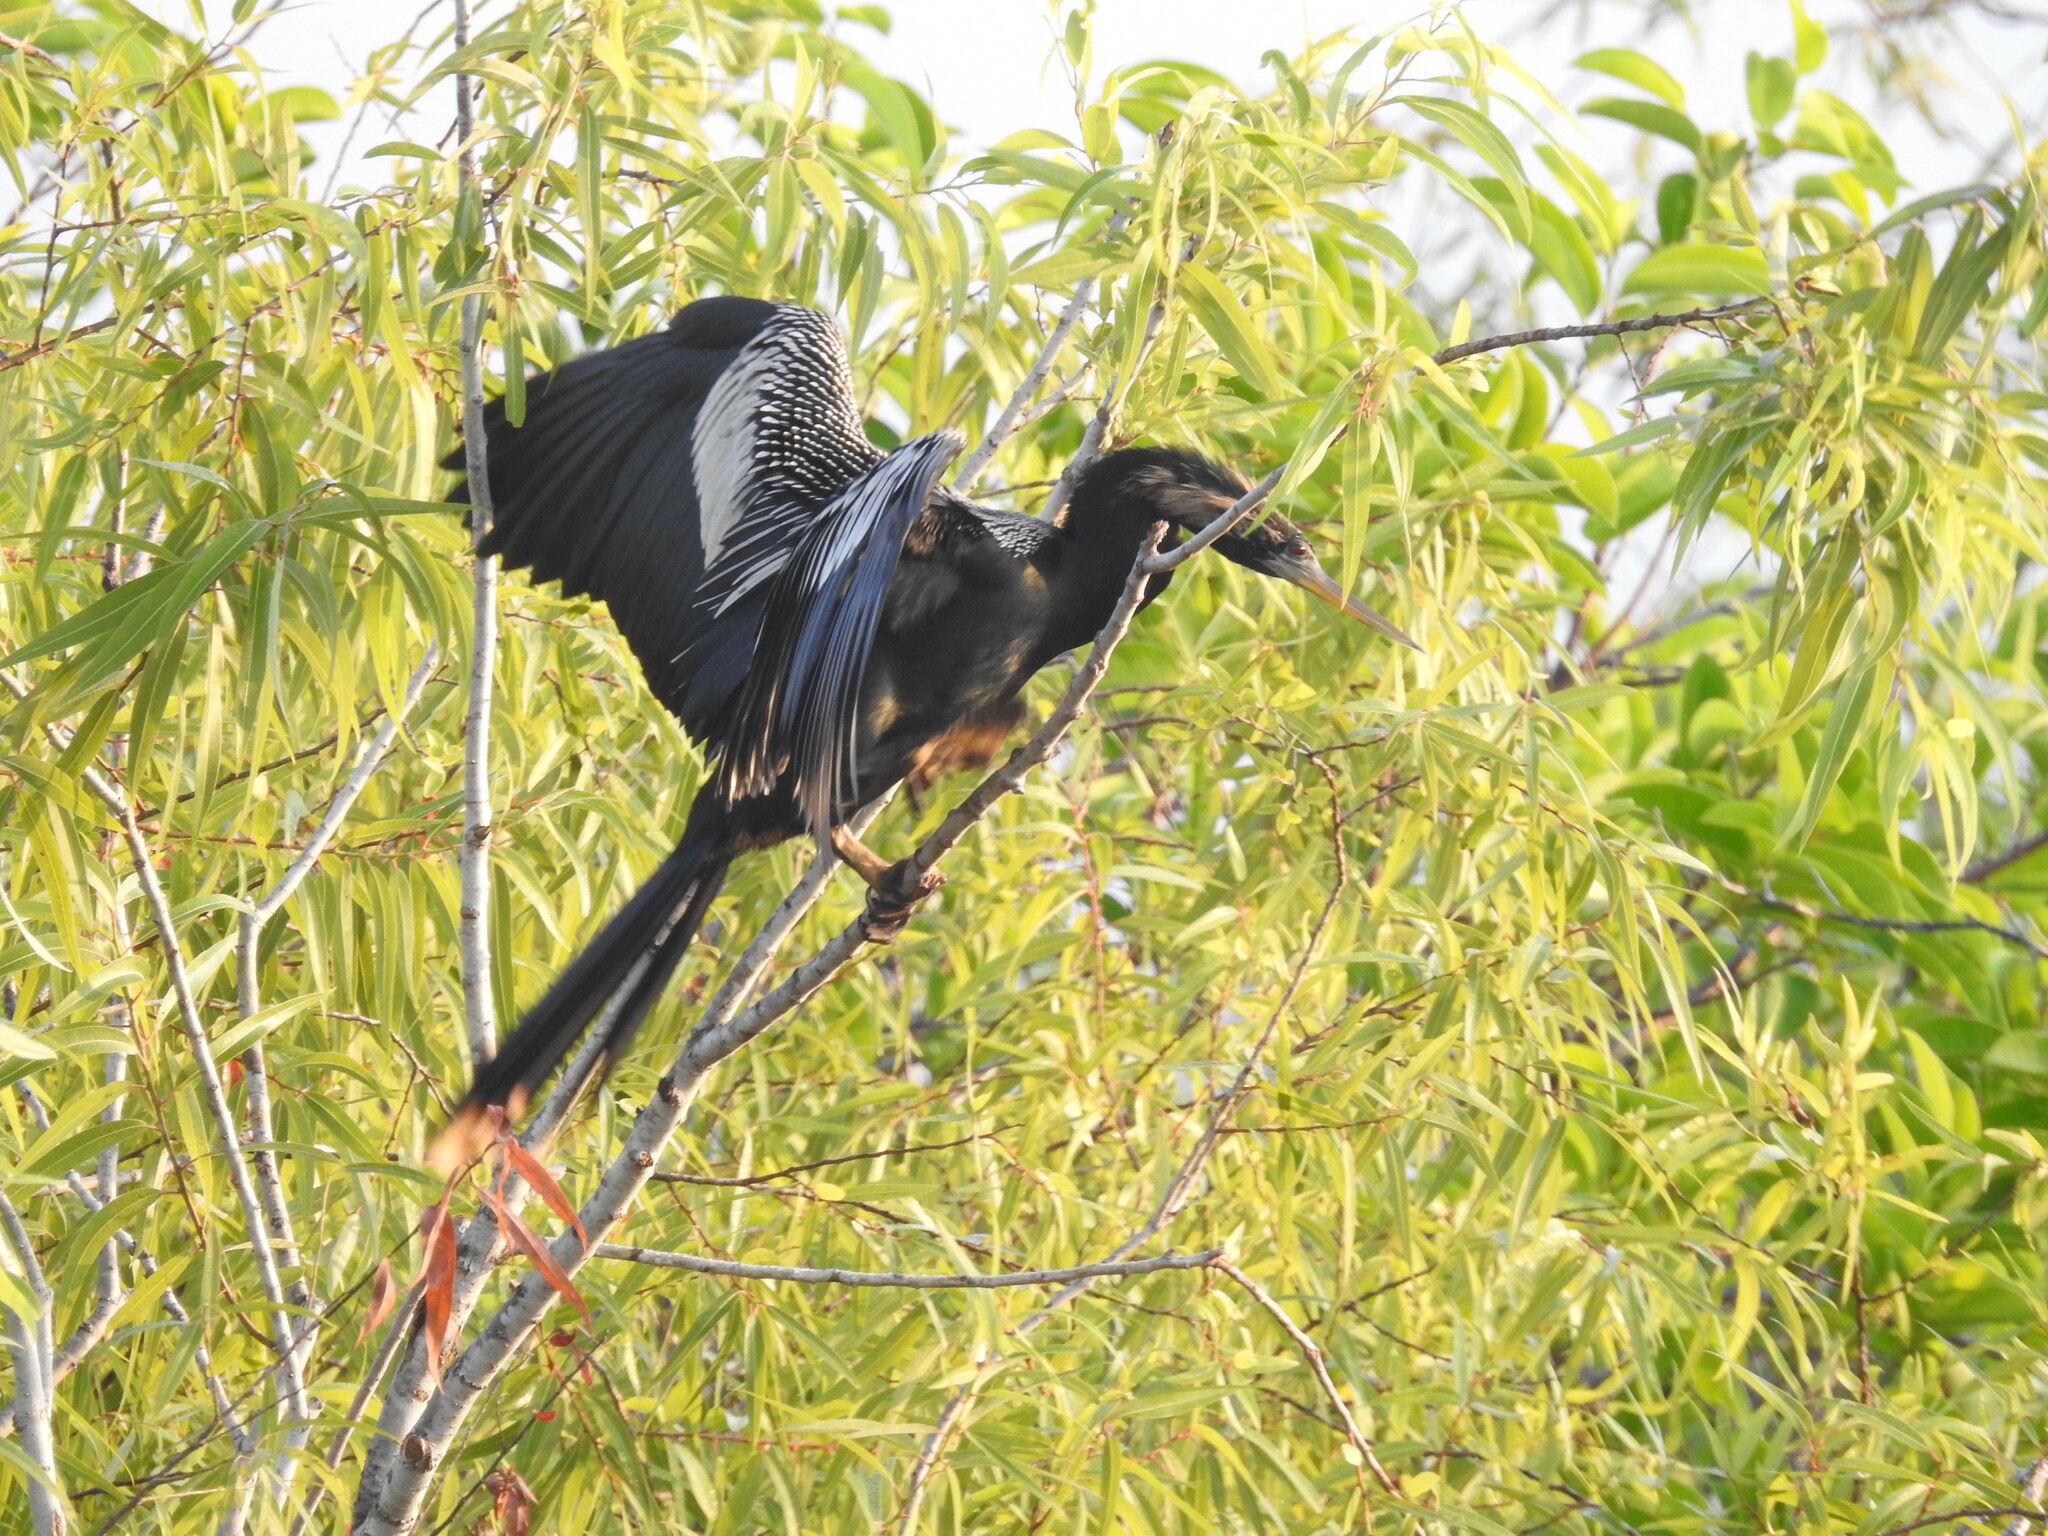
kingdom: Animalia
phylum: Chordata
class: Aves
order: Suliformes
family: Anhingidae
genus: Anhinga
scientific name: Anhinga anhinga
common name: Anhinga
